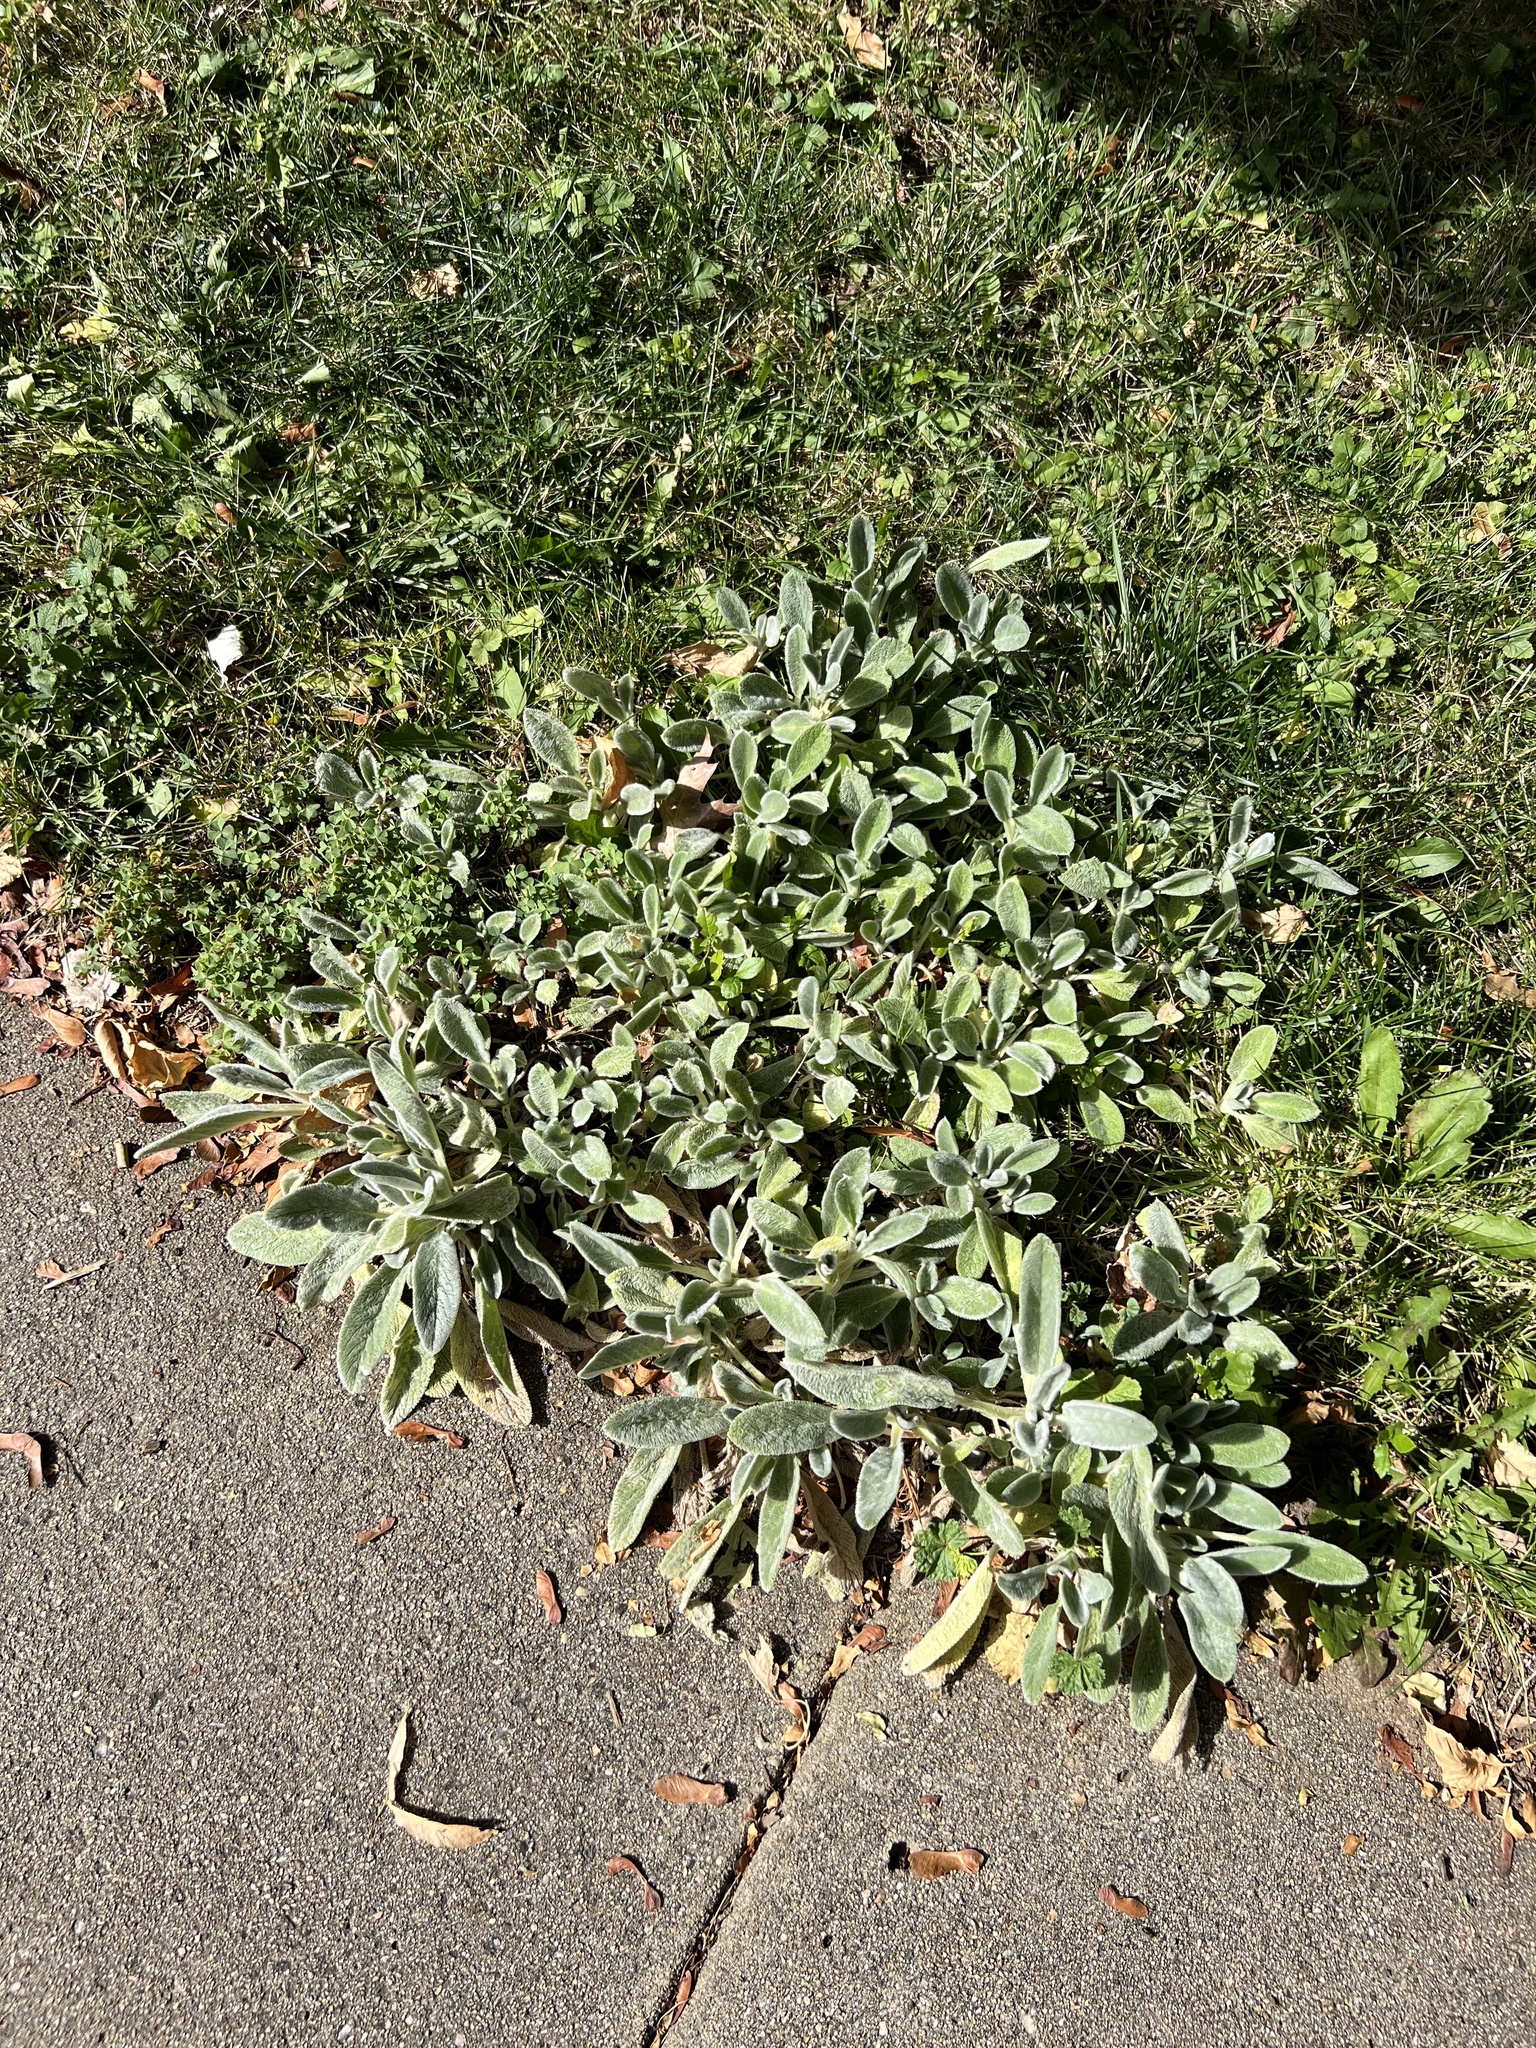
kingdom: Plantae
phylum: Tracheophyta
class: Magnoliopsida
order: Lamiales
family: Lamiaceae
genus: Stachys
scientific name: Stachys byzantina
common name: Lamb's-ear
